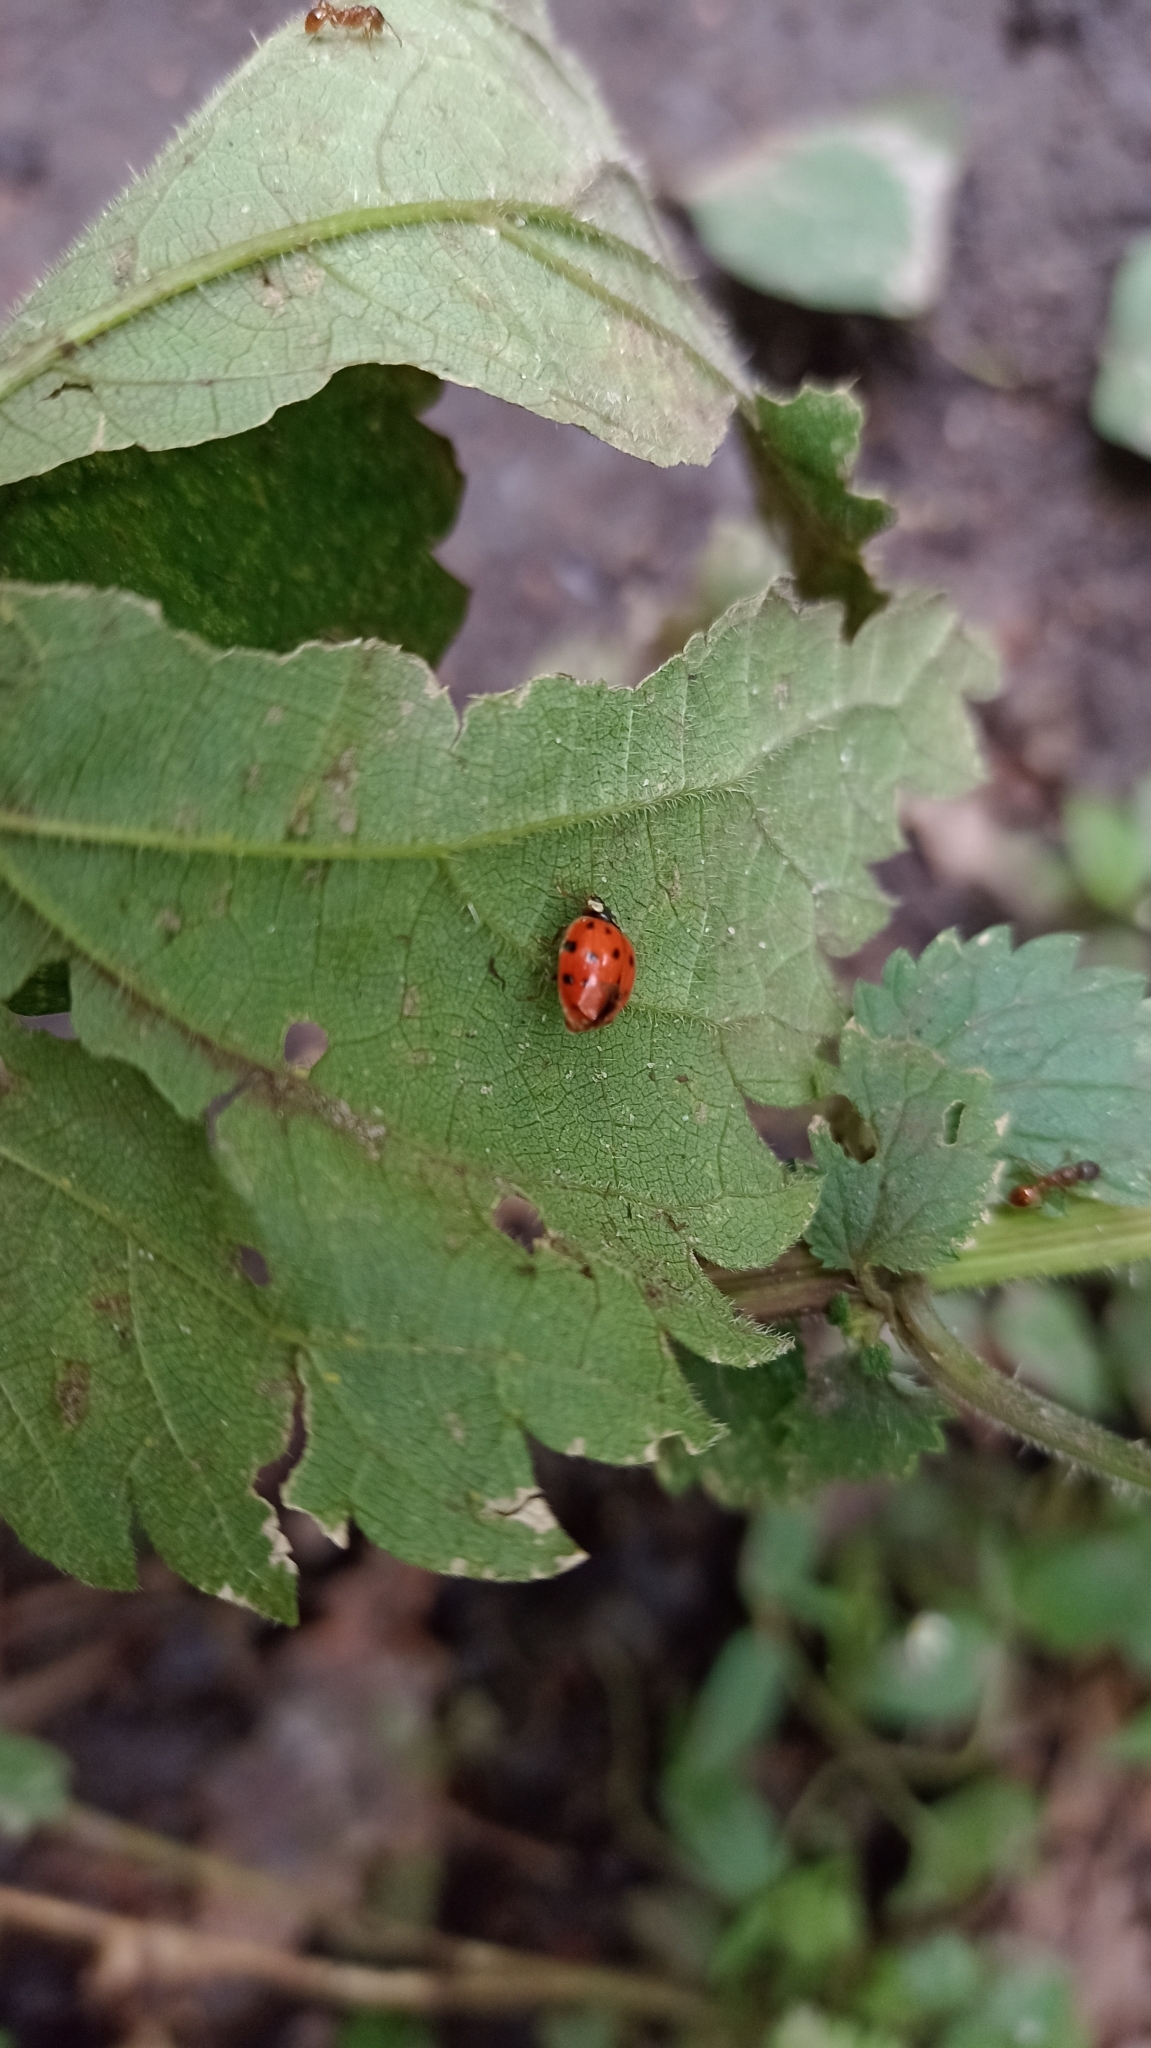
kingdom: Animalia
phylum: Arthropoda
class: Insecta
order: Coleoptera
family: Coccinellidae
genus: Harmonia
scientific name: Harmonia axyridis
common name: Harlequin ladybird
